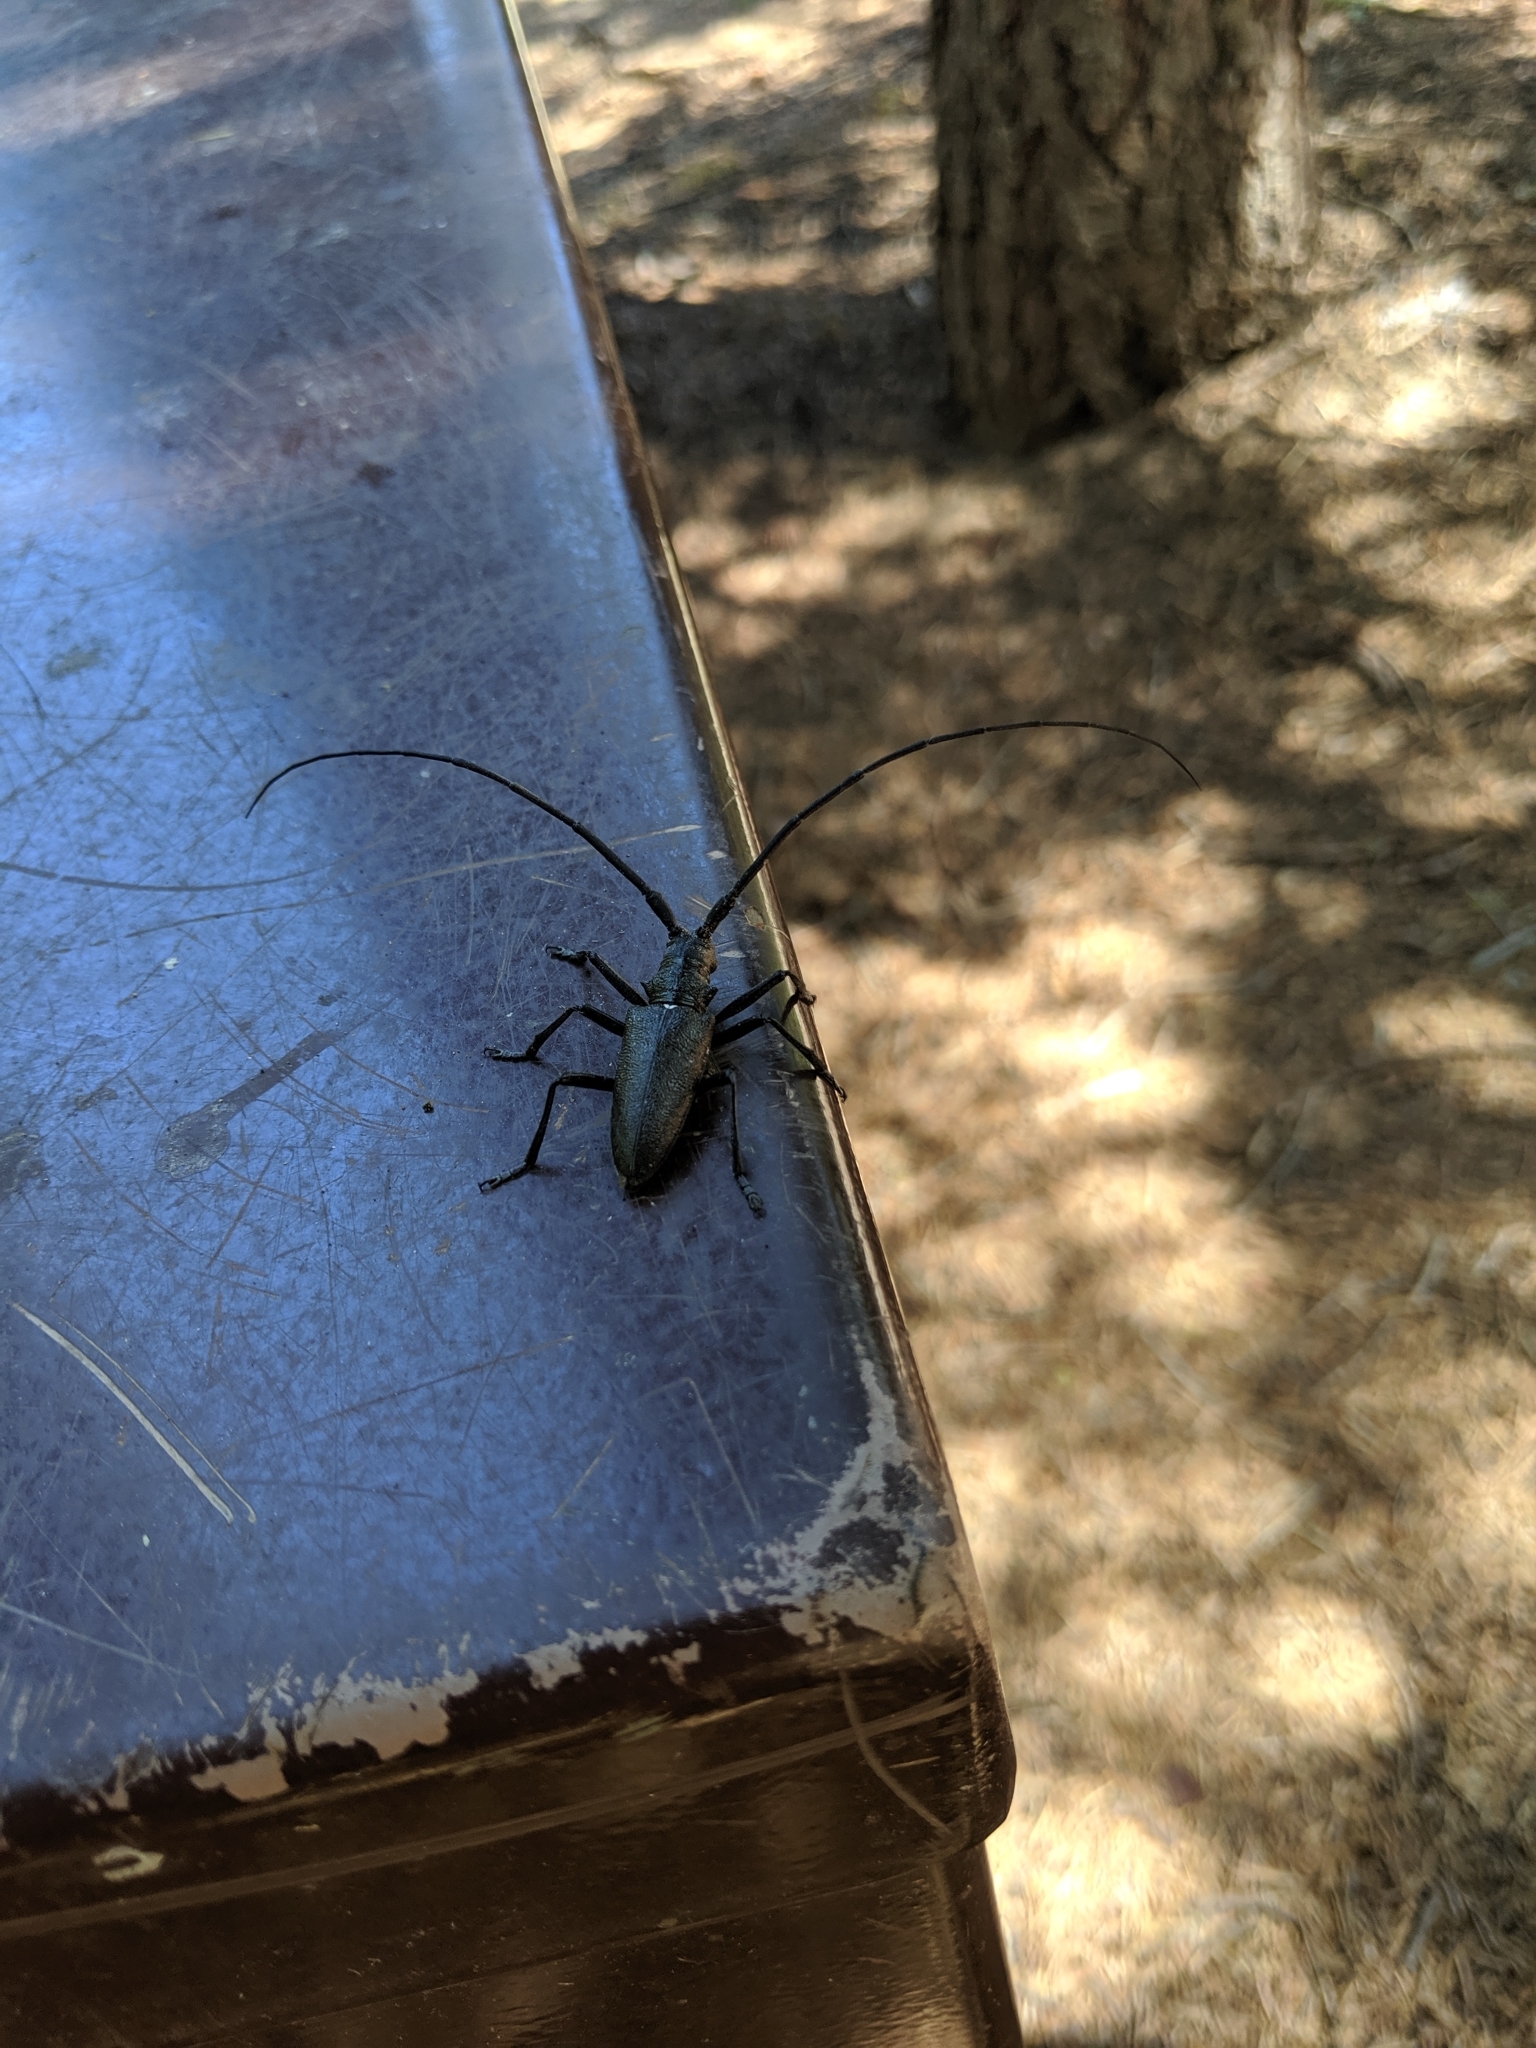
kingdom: Animalia
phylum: Arthropoda
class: Insecta
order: Coleoptera
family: Cerambycidae
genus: Monochamus
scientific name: Monochamus scutellatus
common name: White-spotted sawyer beetle
